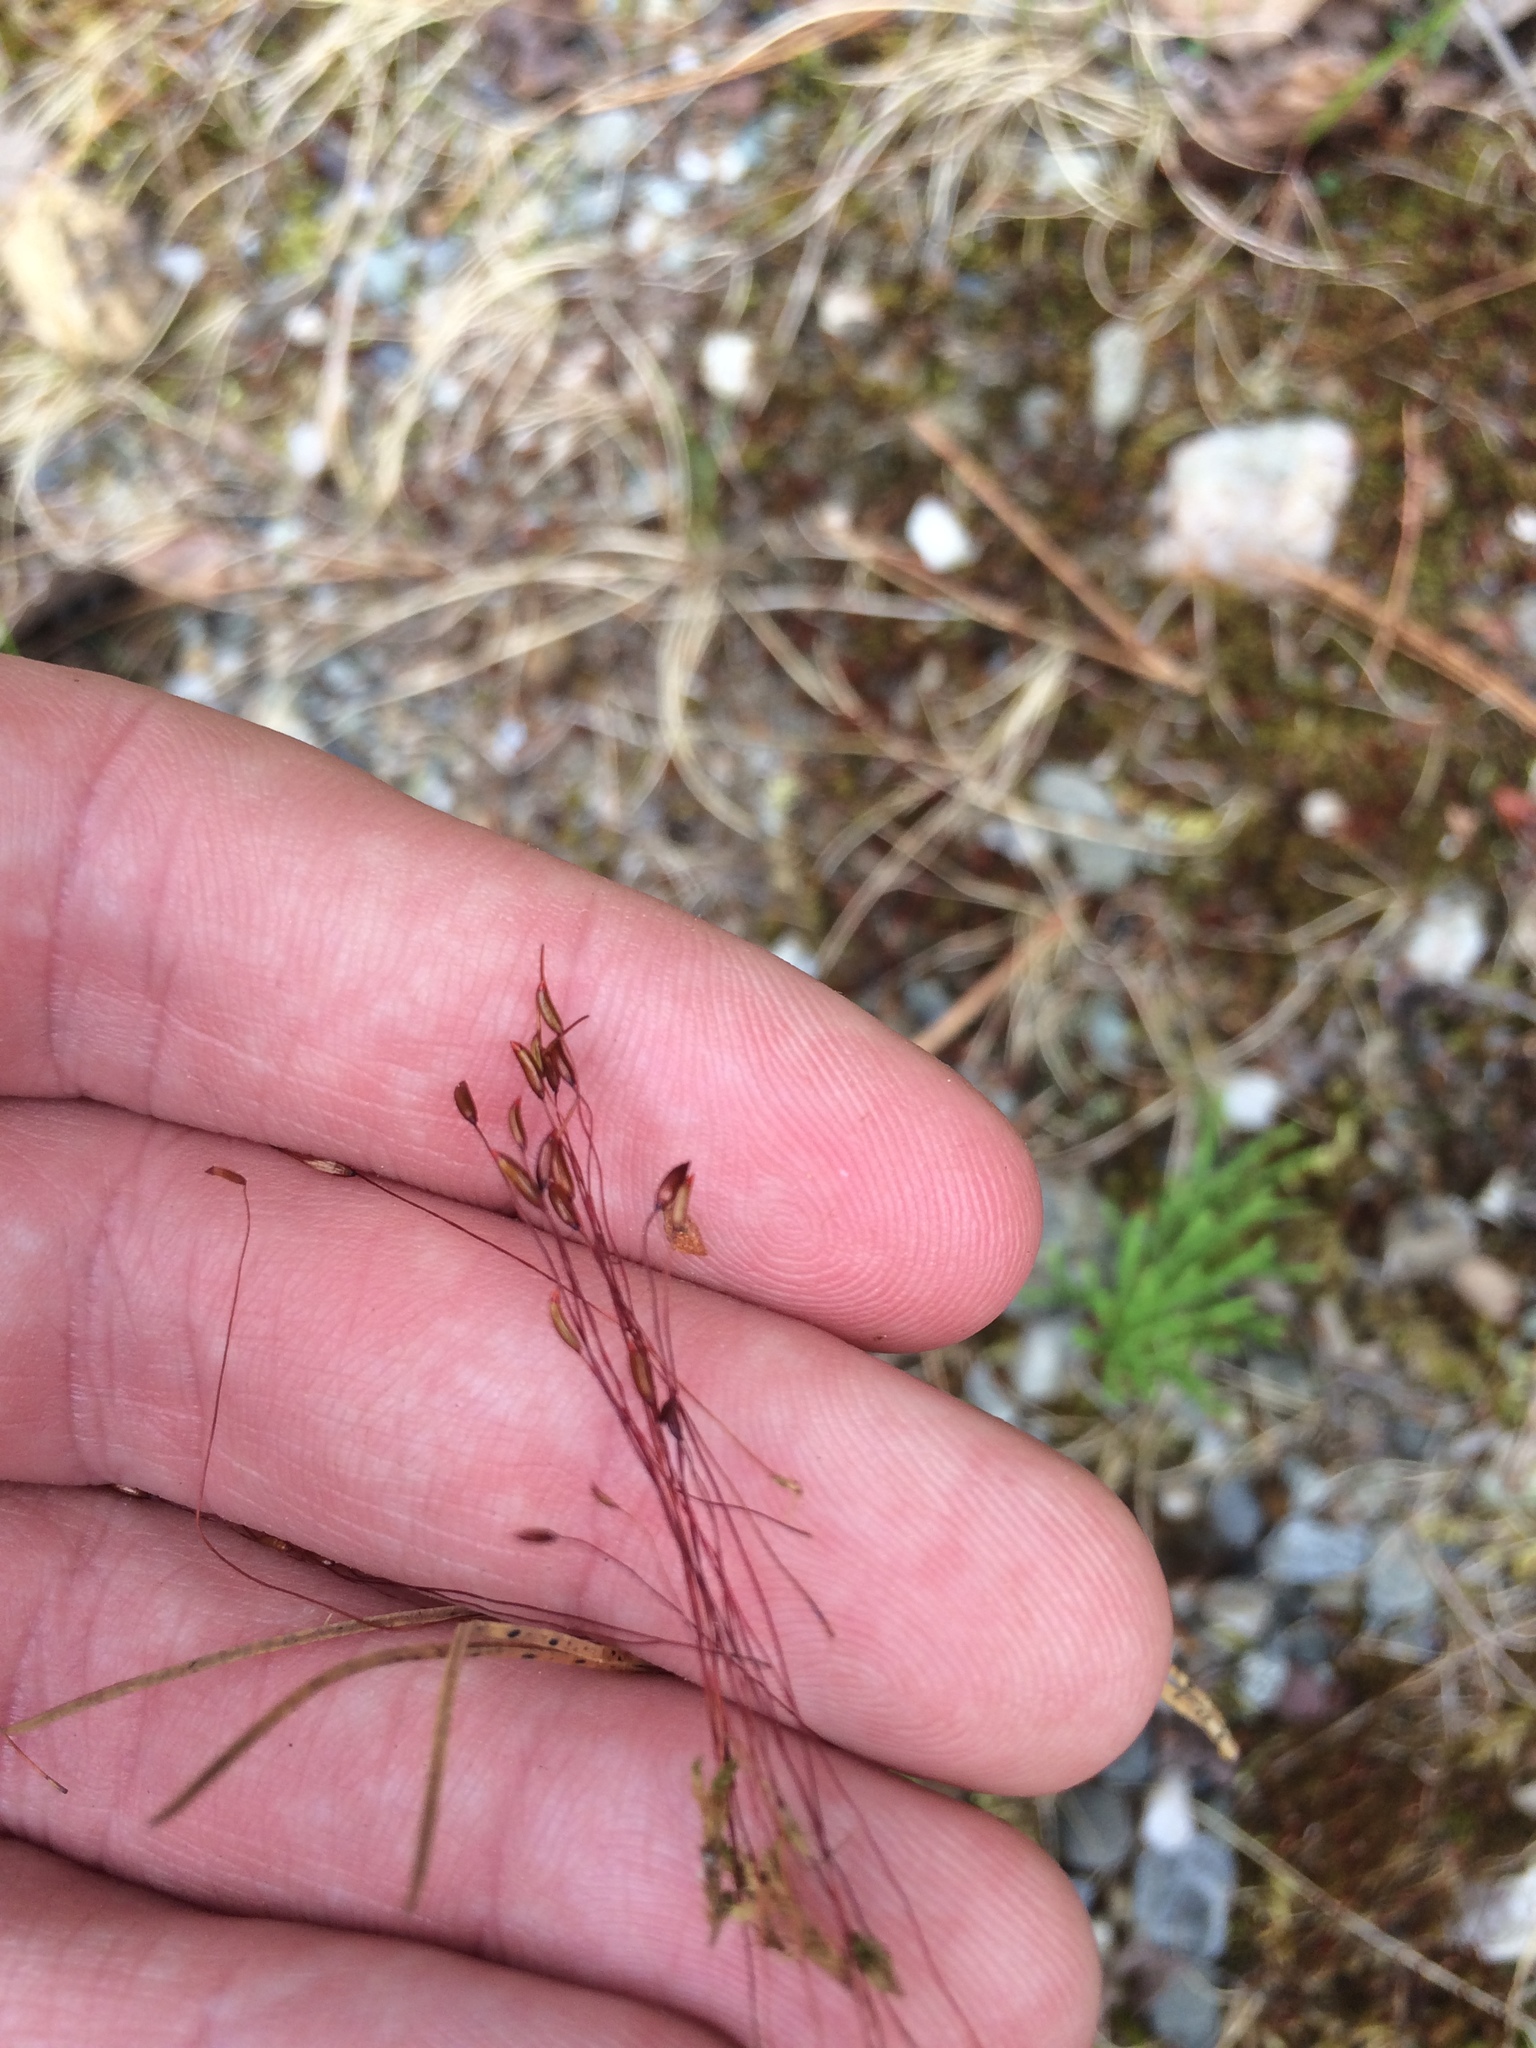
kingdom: Plantae
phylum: Bryophyta
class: Bryopsida
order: Dicranales
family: Ditrichaceae
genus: Ceratodon
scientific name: Ceratodon purpureus
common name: Redshank
